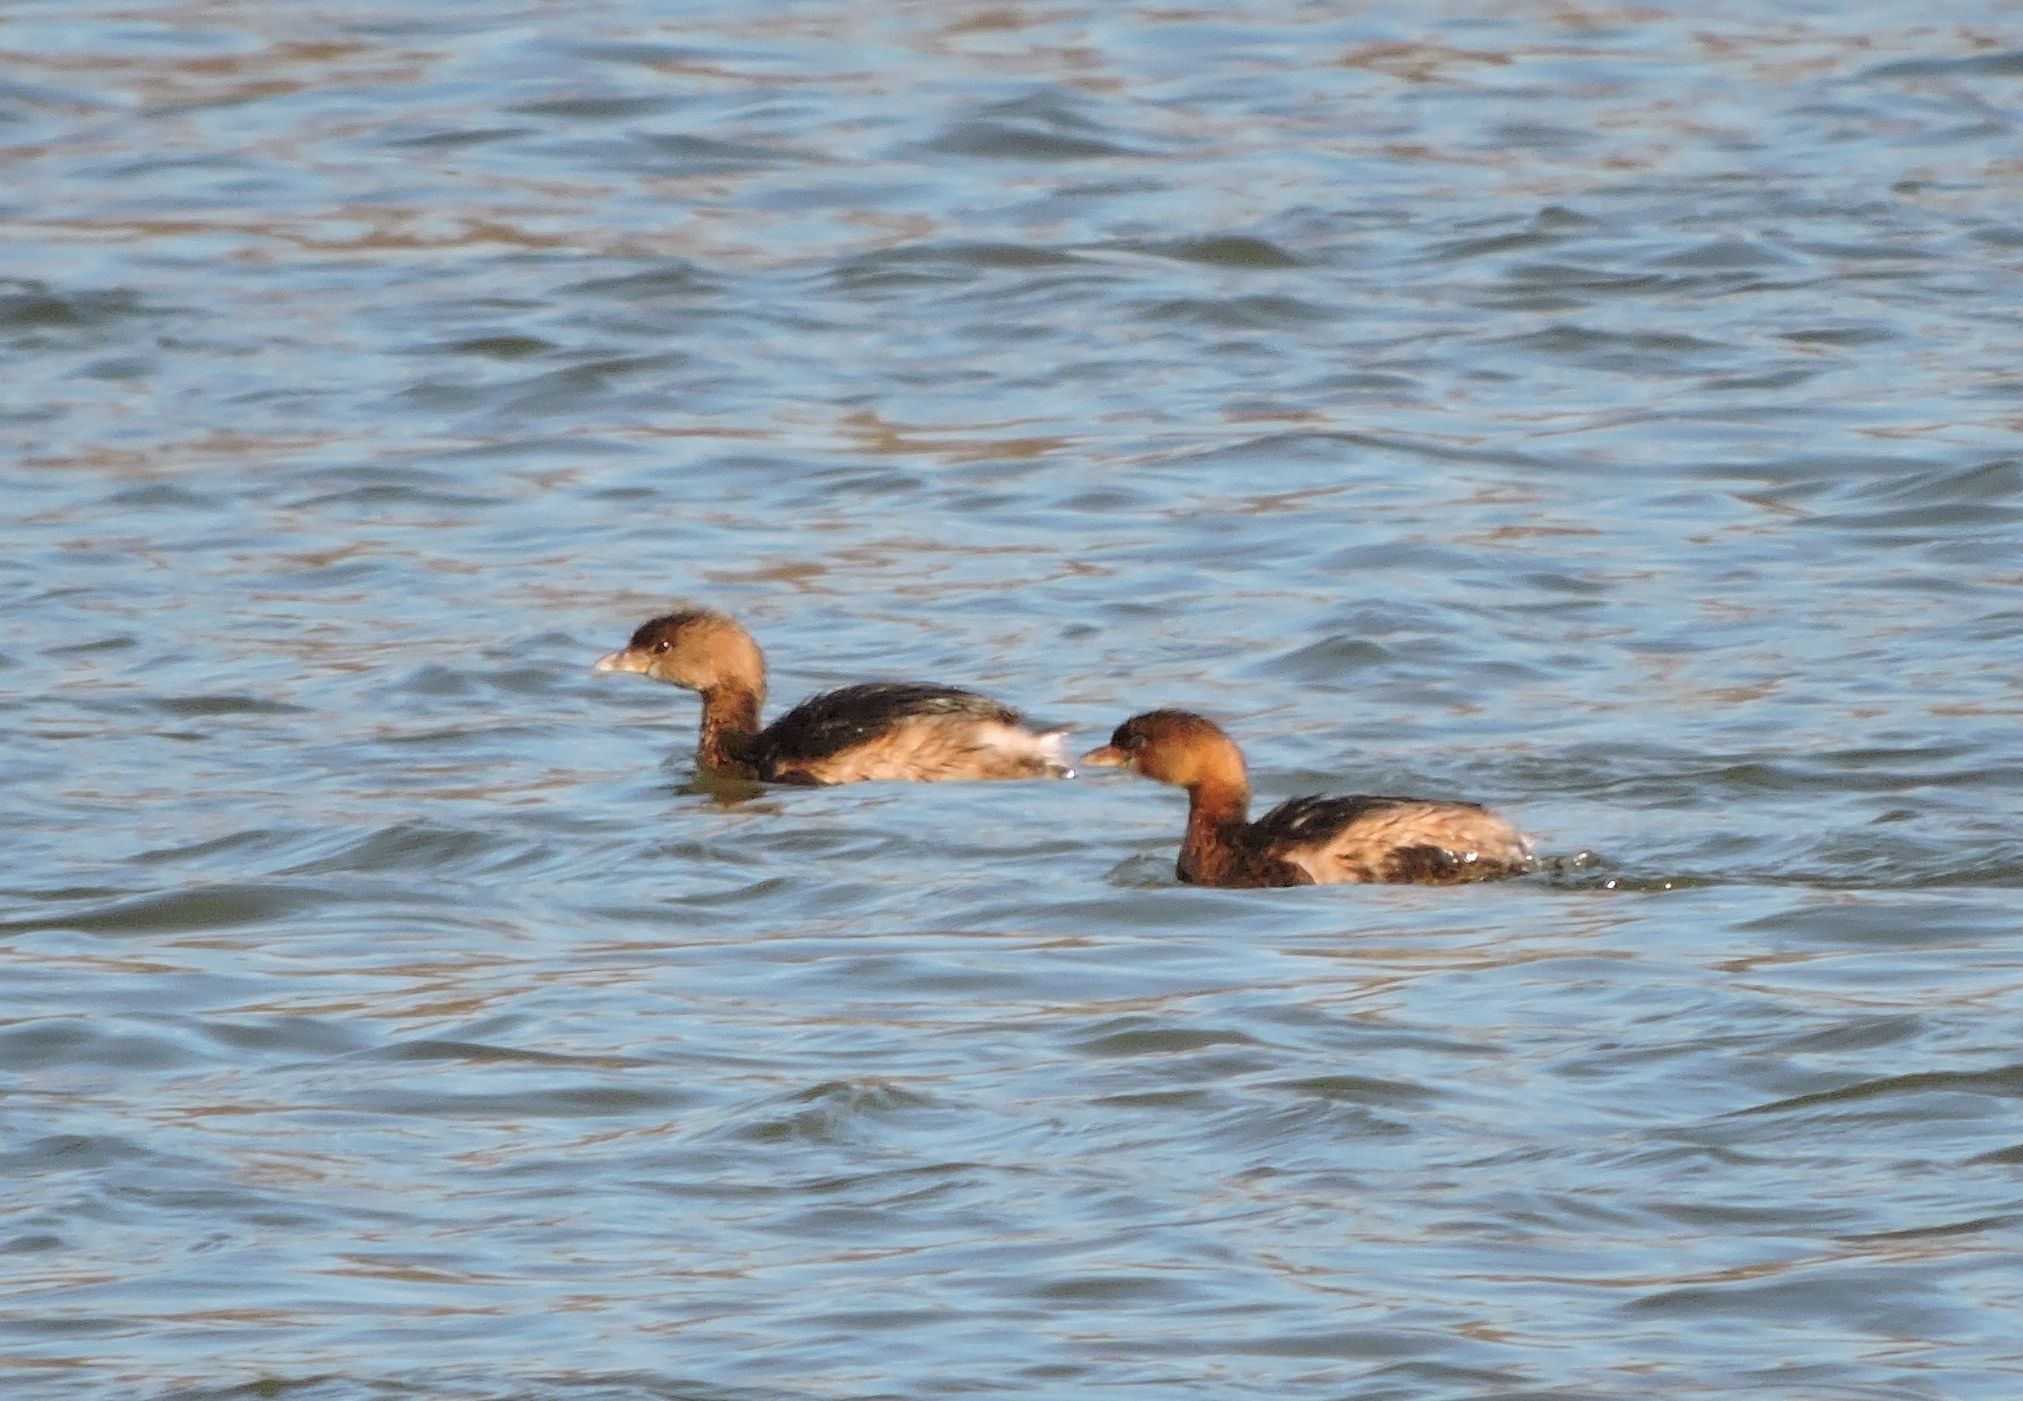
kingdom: Animalia
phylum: Chordata
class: Aves
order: Podicipediformes
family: Podicipedidae
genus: Podilymbus
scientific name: Podilymbus podiceps
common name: Pied-billed grebe
